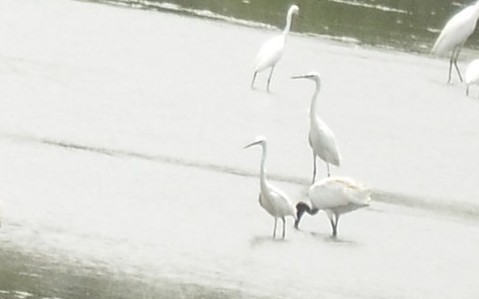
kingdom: Animalia
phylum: Chordata
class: Aves
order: Pelecaniformes
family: Ardeidae
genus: Egretta
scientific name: Egretta garzetta
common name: Little egret
